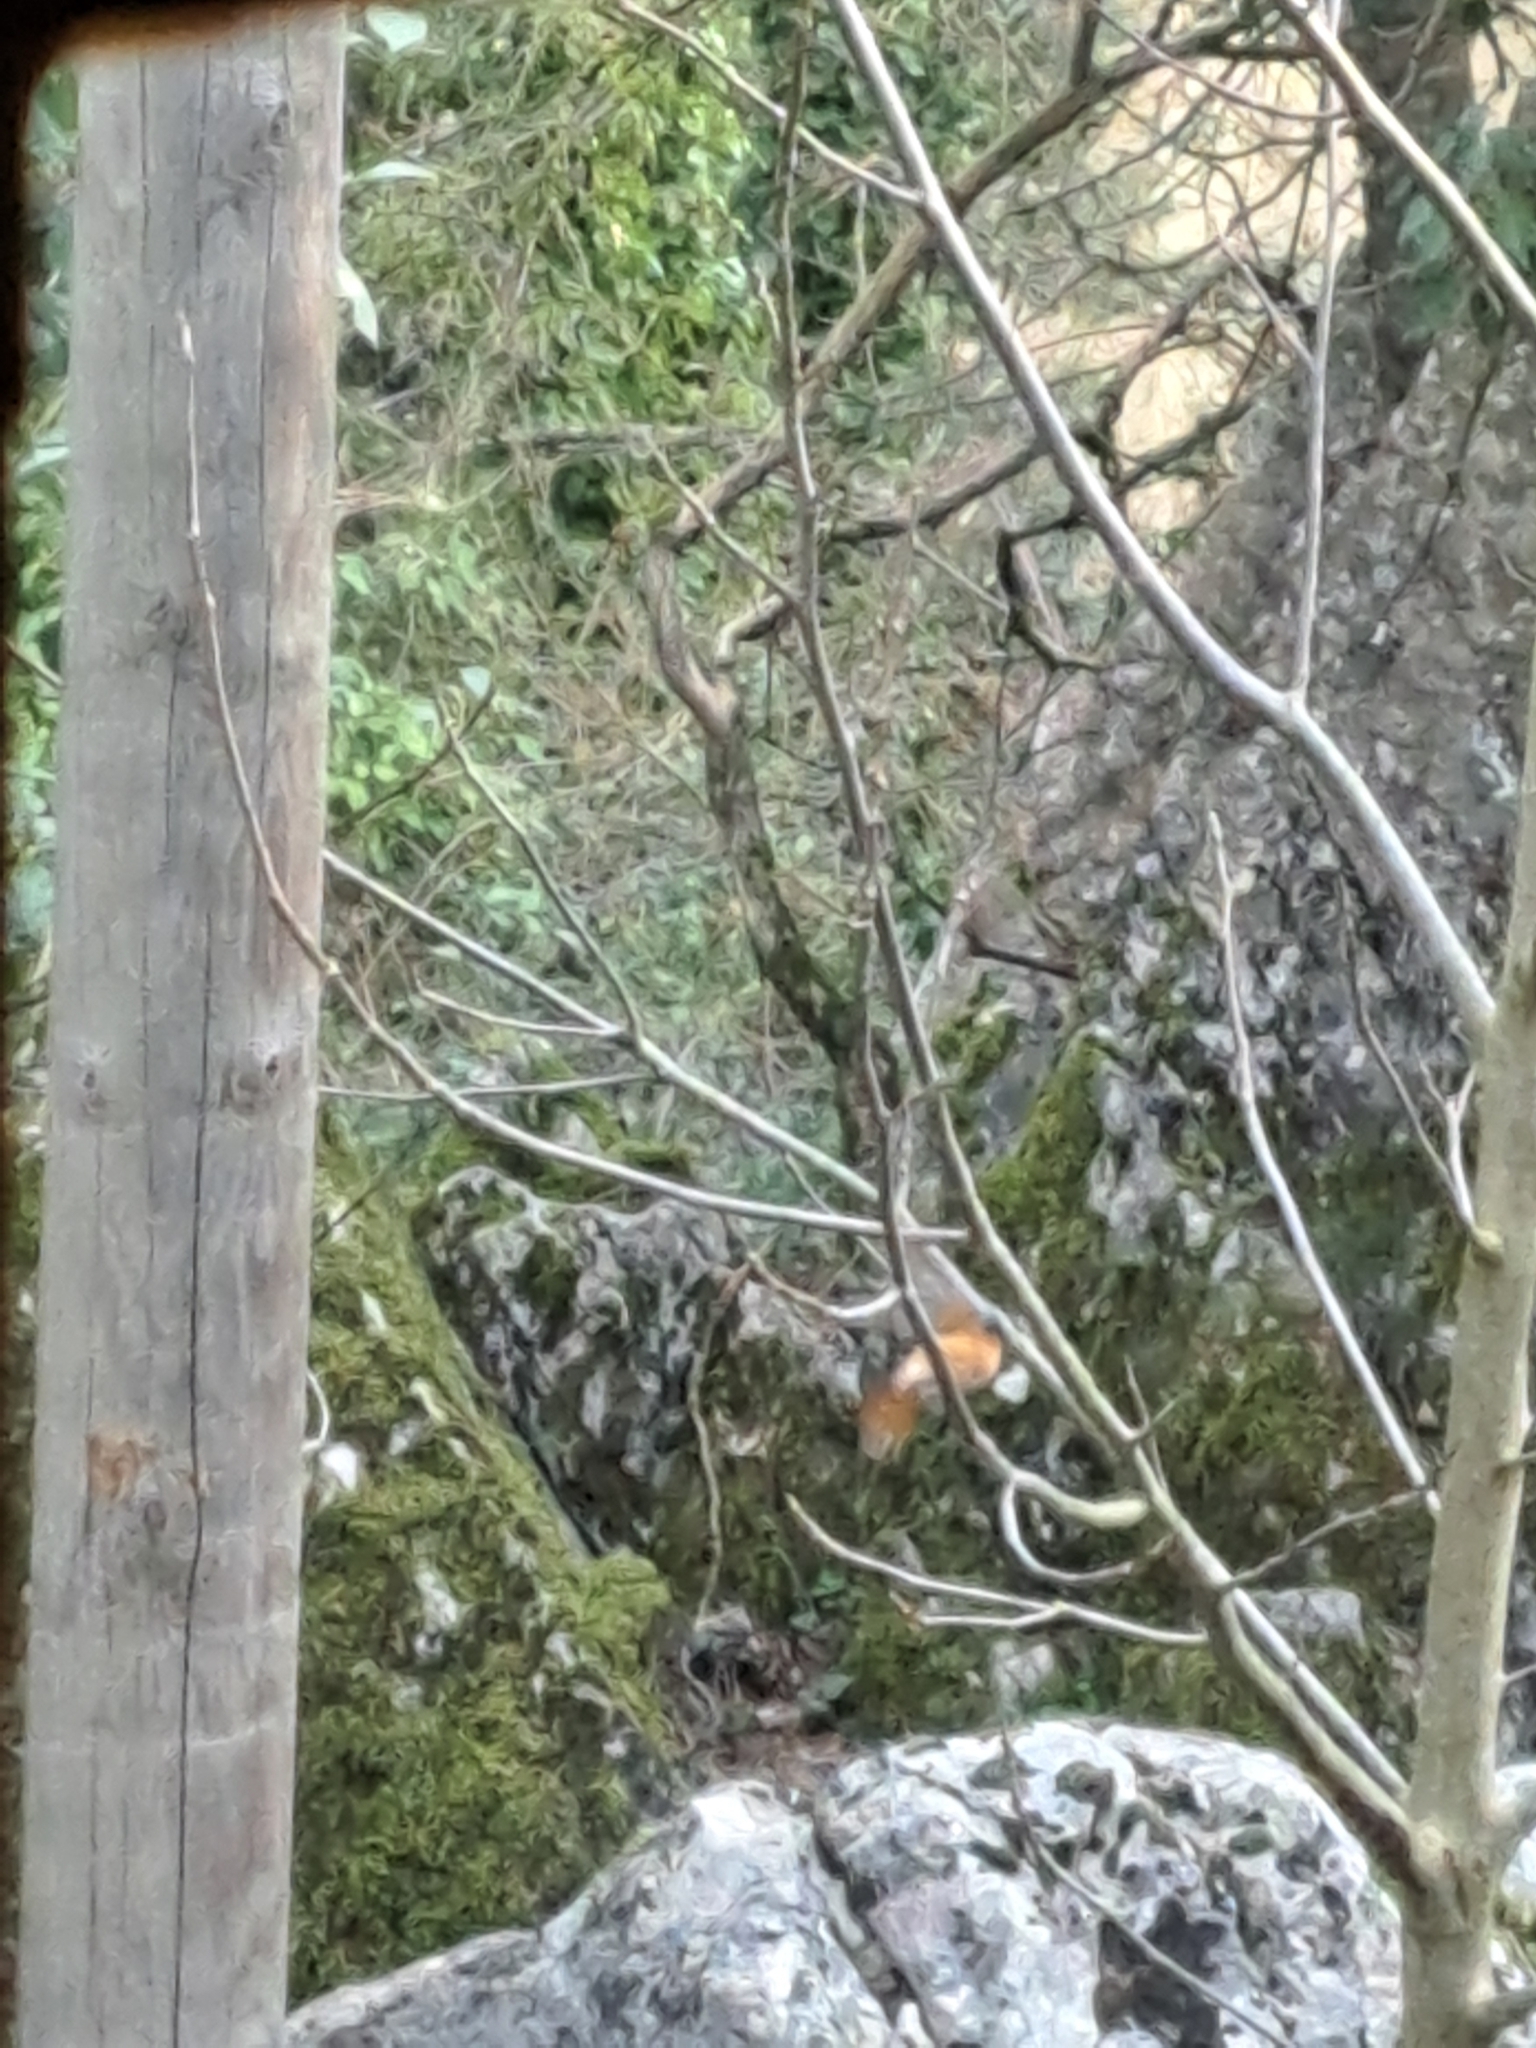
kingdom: Animalia
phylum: Chordata
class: Aves
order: Passeriformes
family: Muscicapidae
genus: Phoenicurus
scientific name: Phoenicurus phoenicurus
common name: Common redstart
